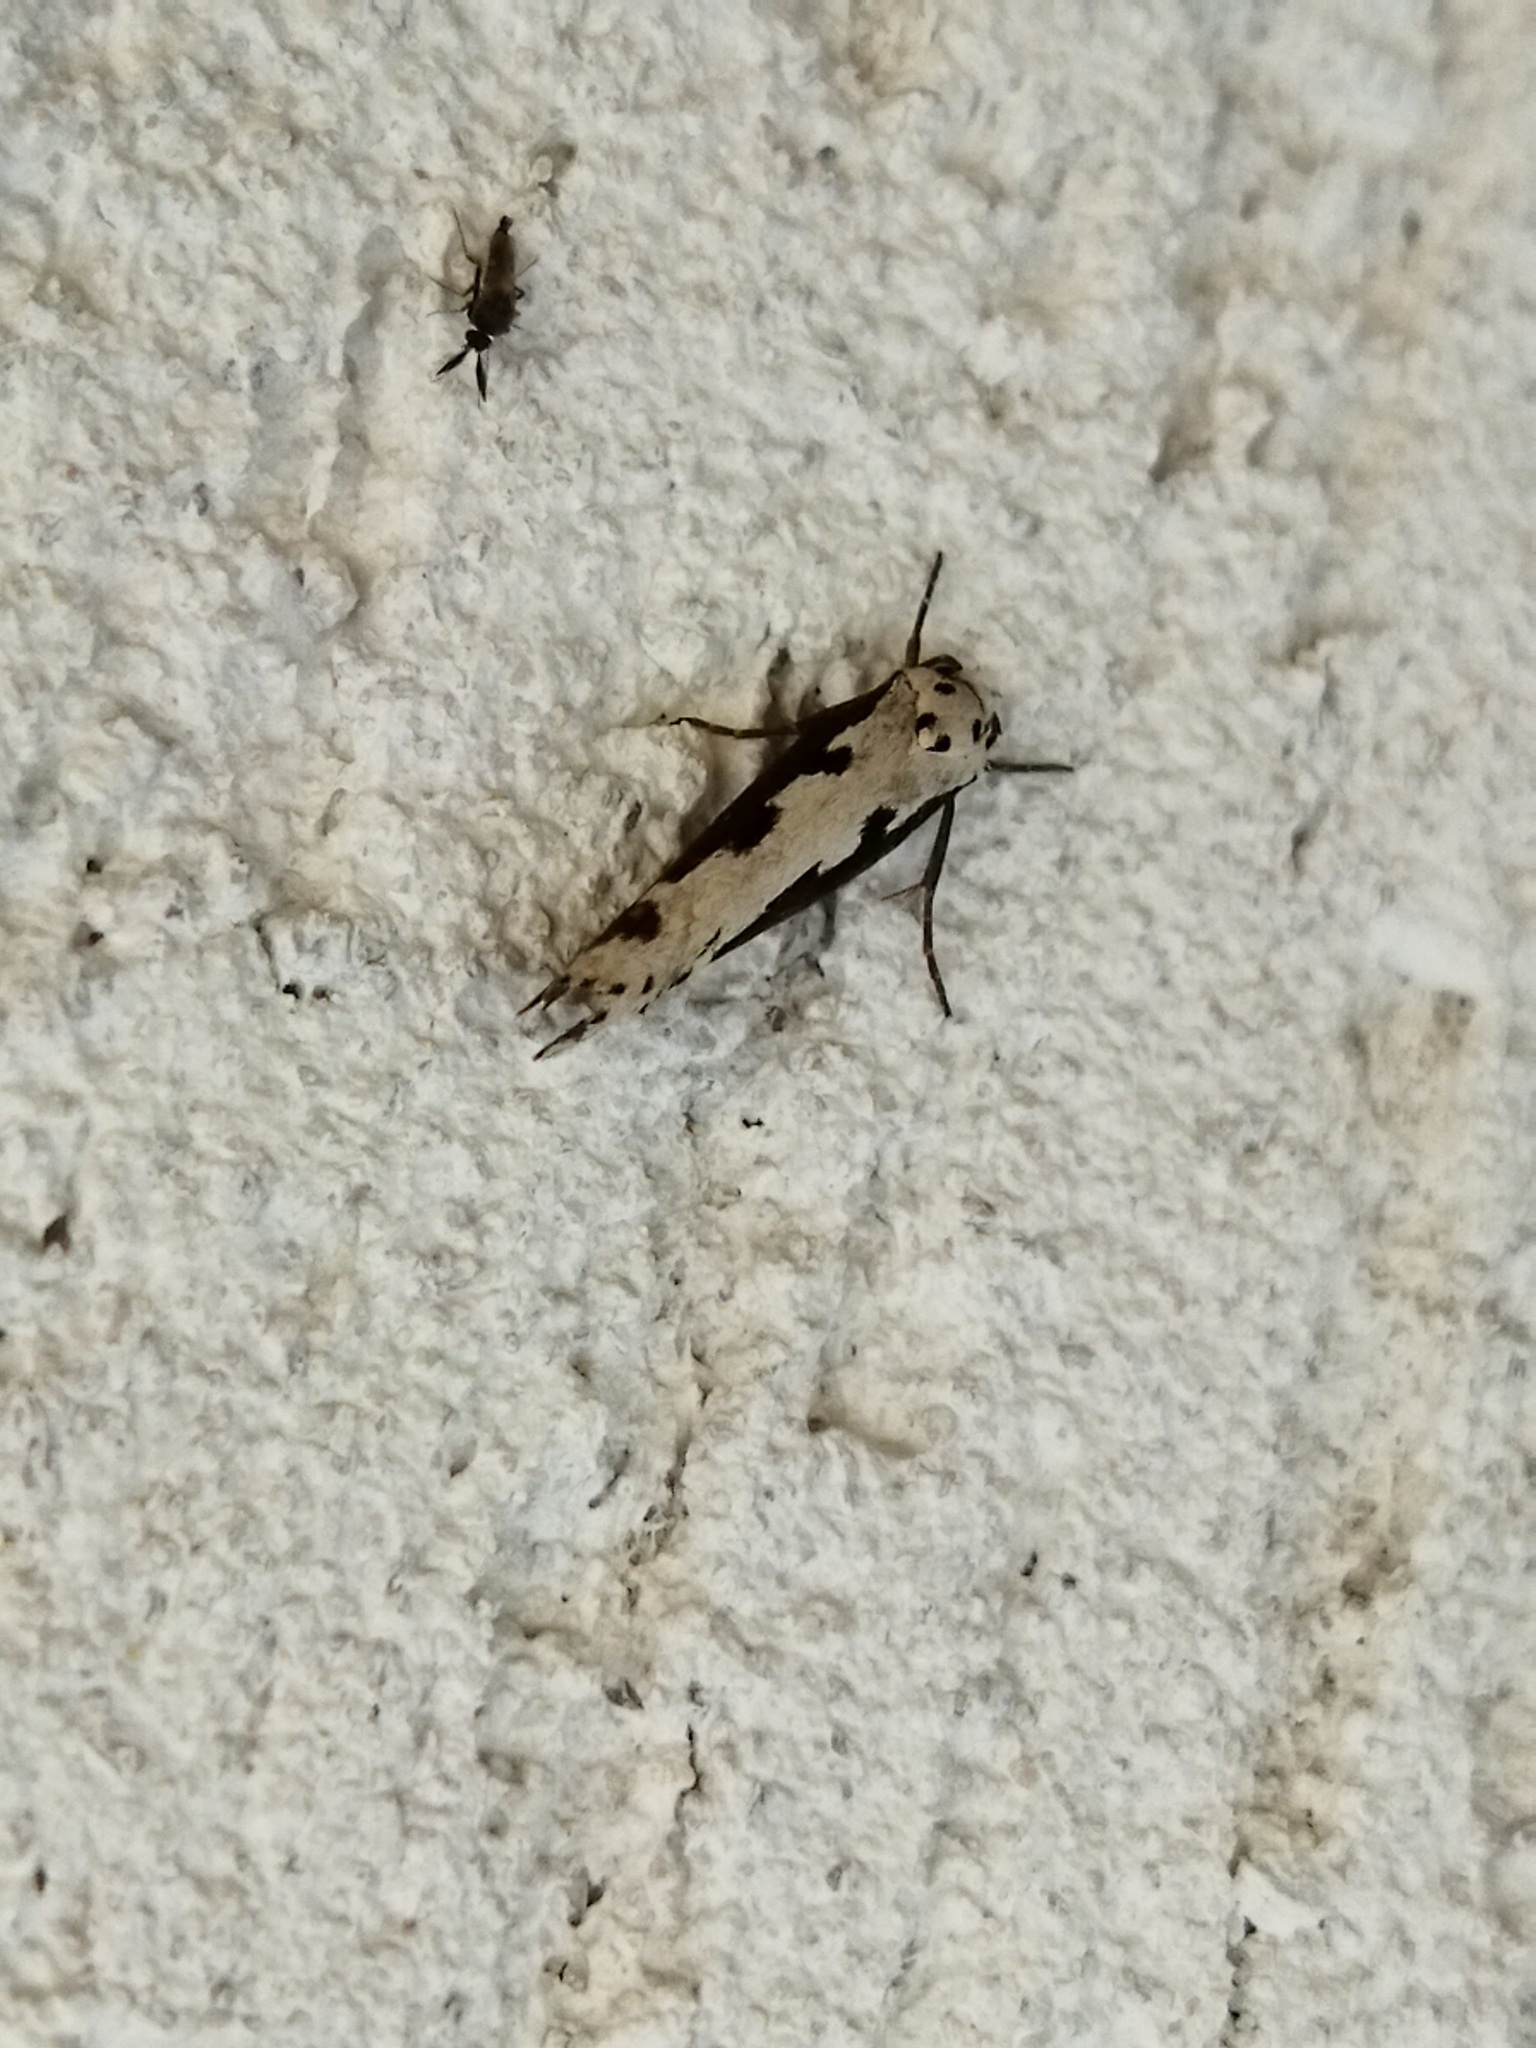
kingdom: Animalia
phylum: Arthropoda
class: Insecta
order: Lepidoptera
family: Ethmiidae
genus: Ethmia
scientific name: Ethmia bipunctella
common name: Bordered ermel
